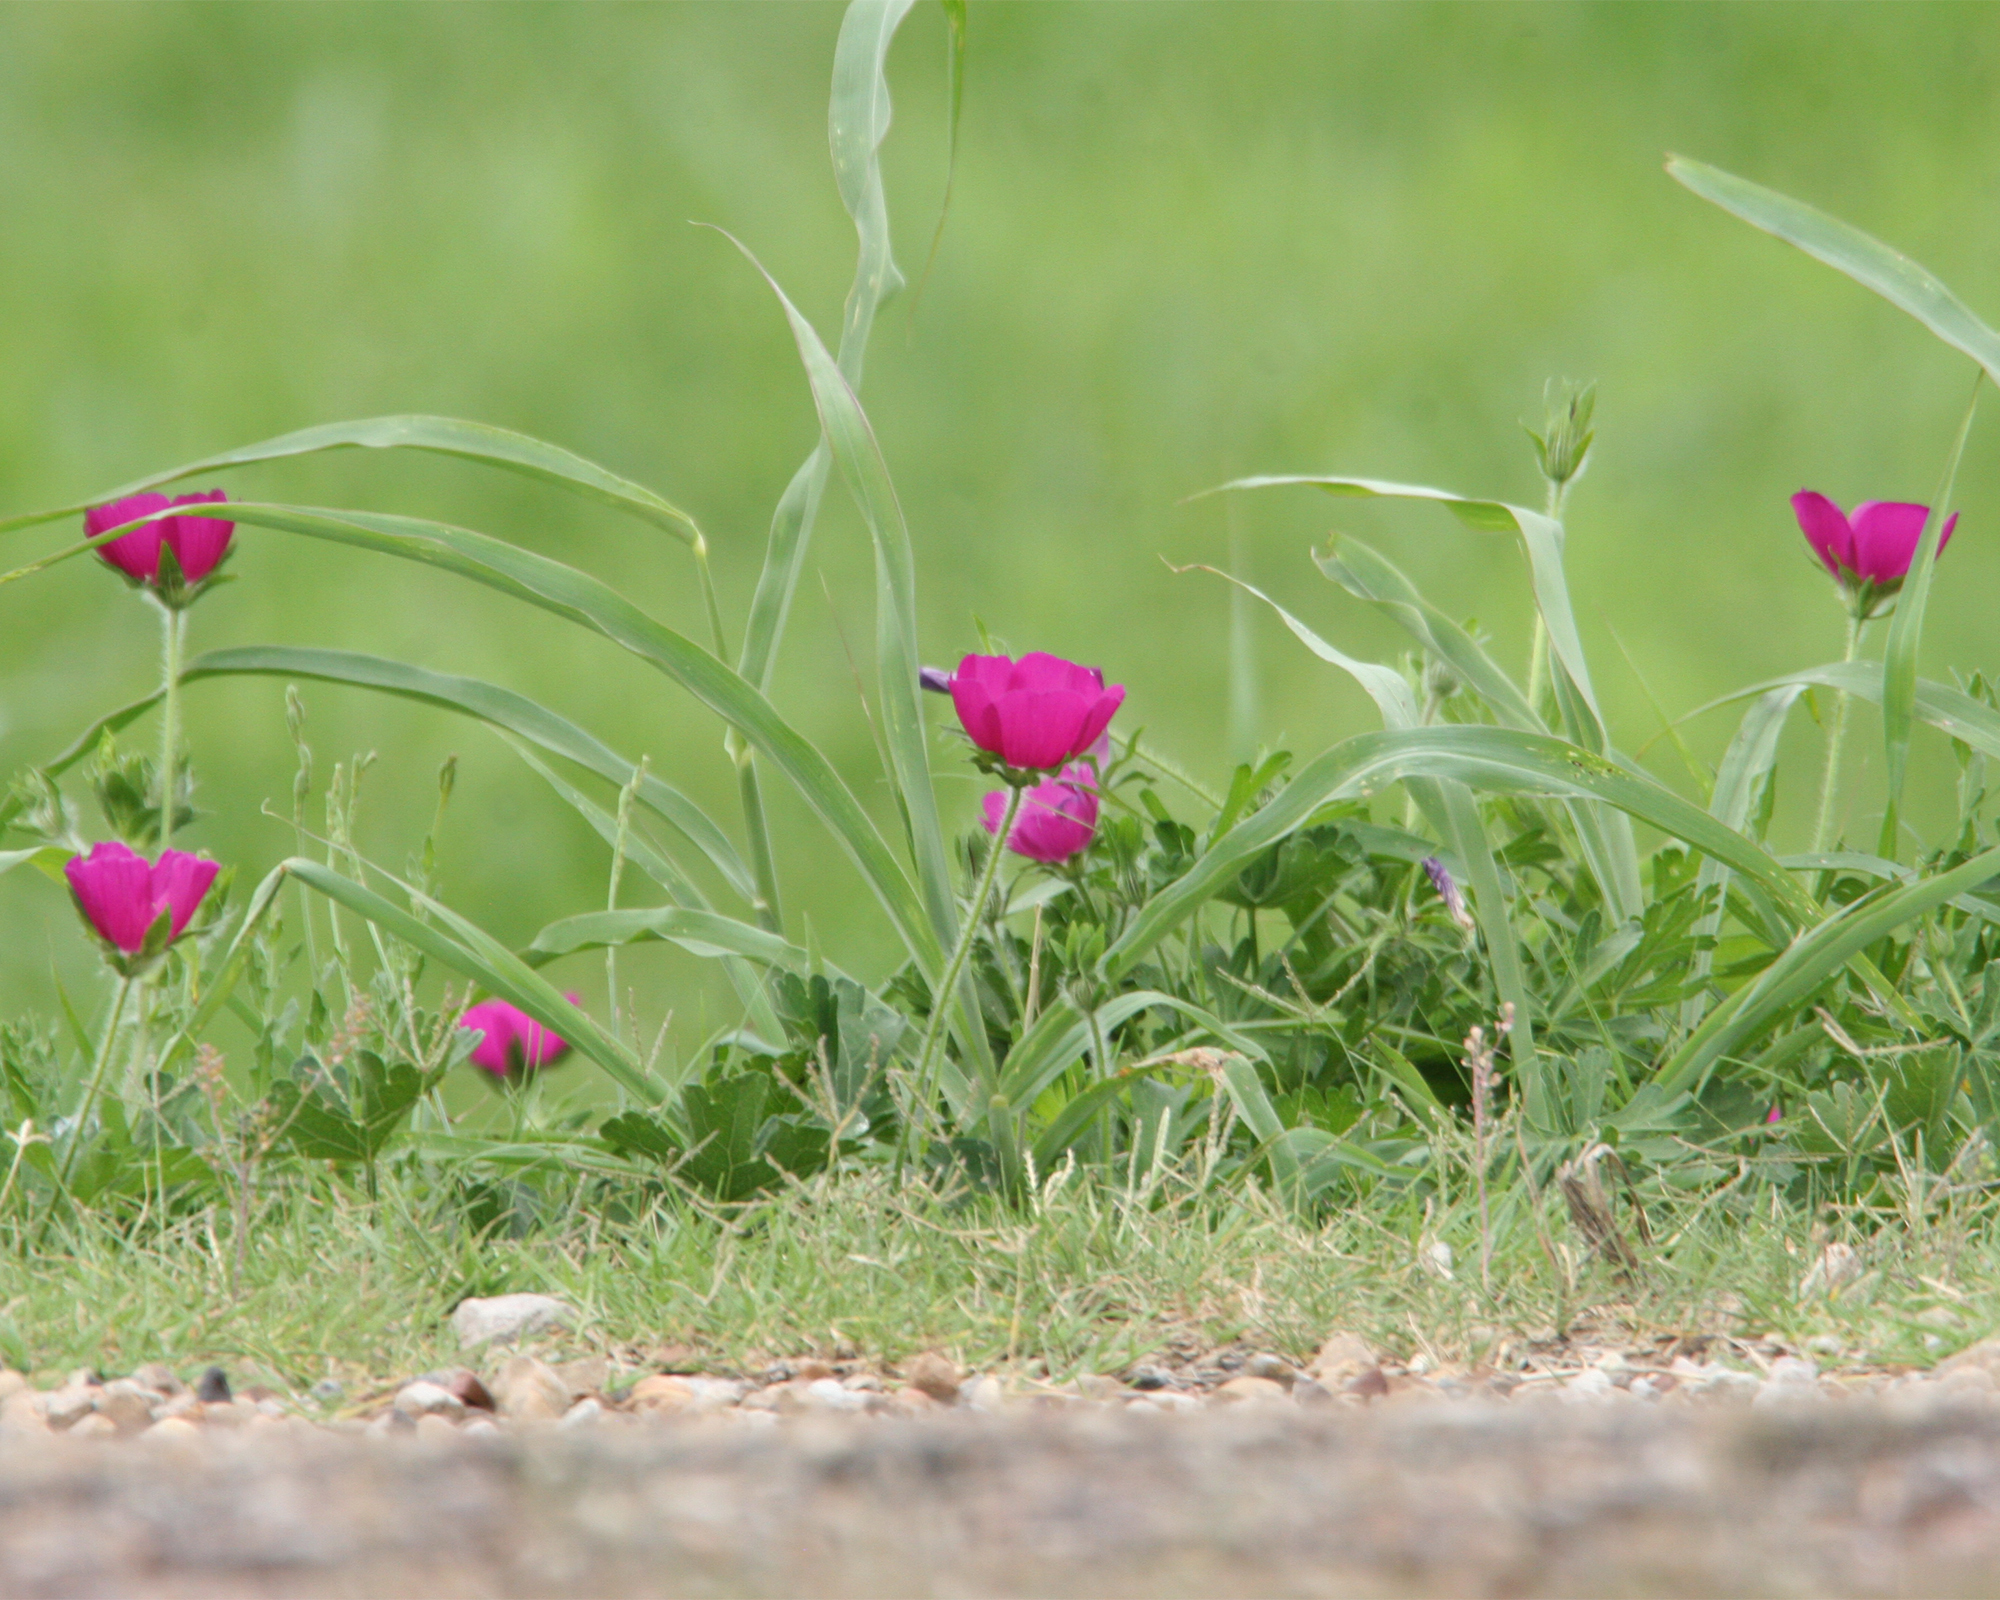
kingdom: Plantae
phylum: Tracheophyta
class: Magnoliopsida
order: Malvales
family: Malvaceae
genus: Callirhoe
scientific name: Callirhoe involucrata
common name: Purple poppy-mallow
